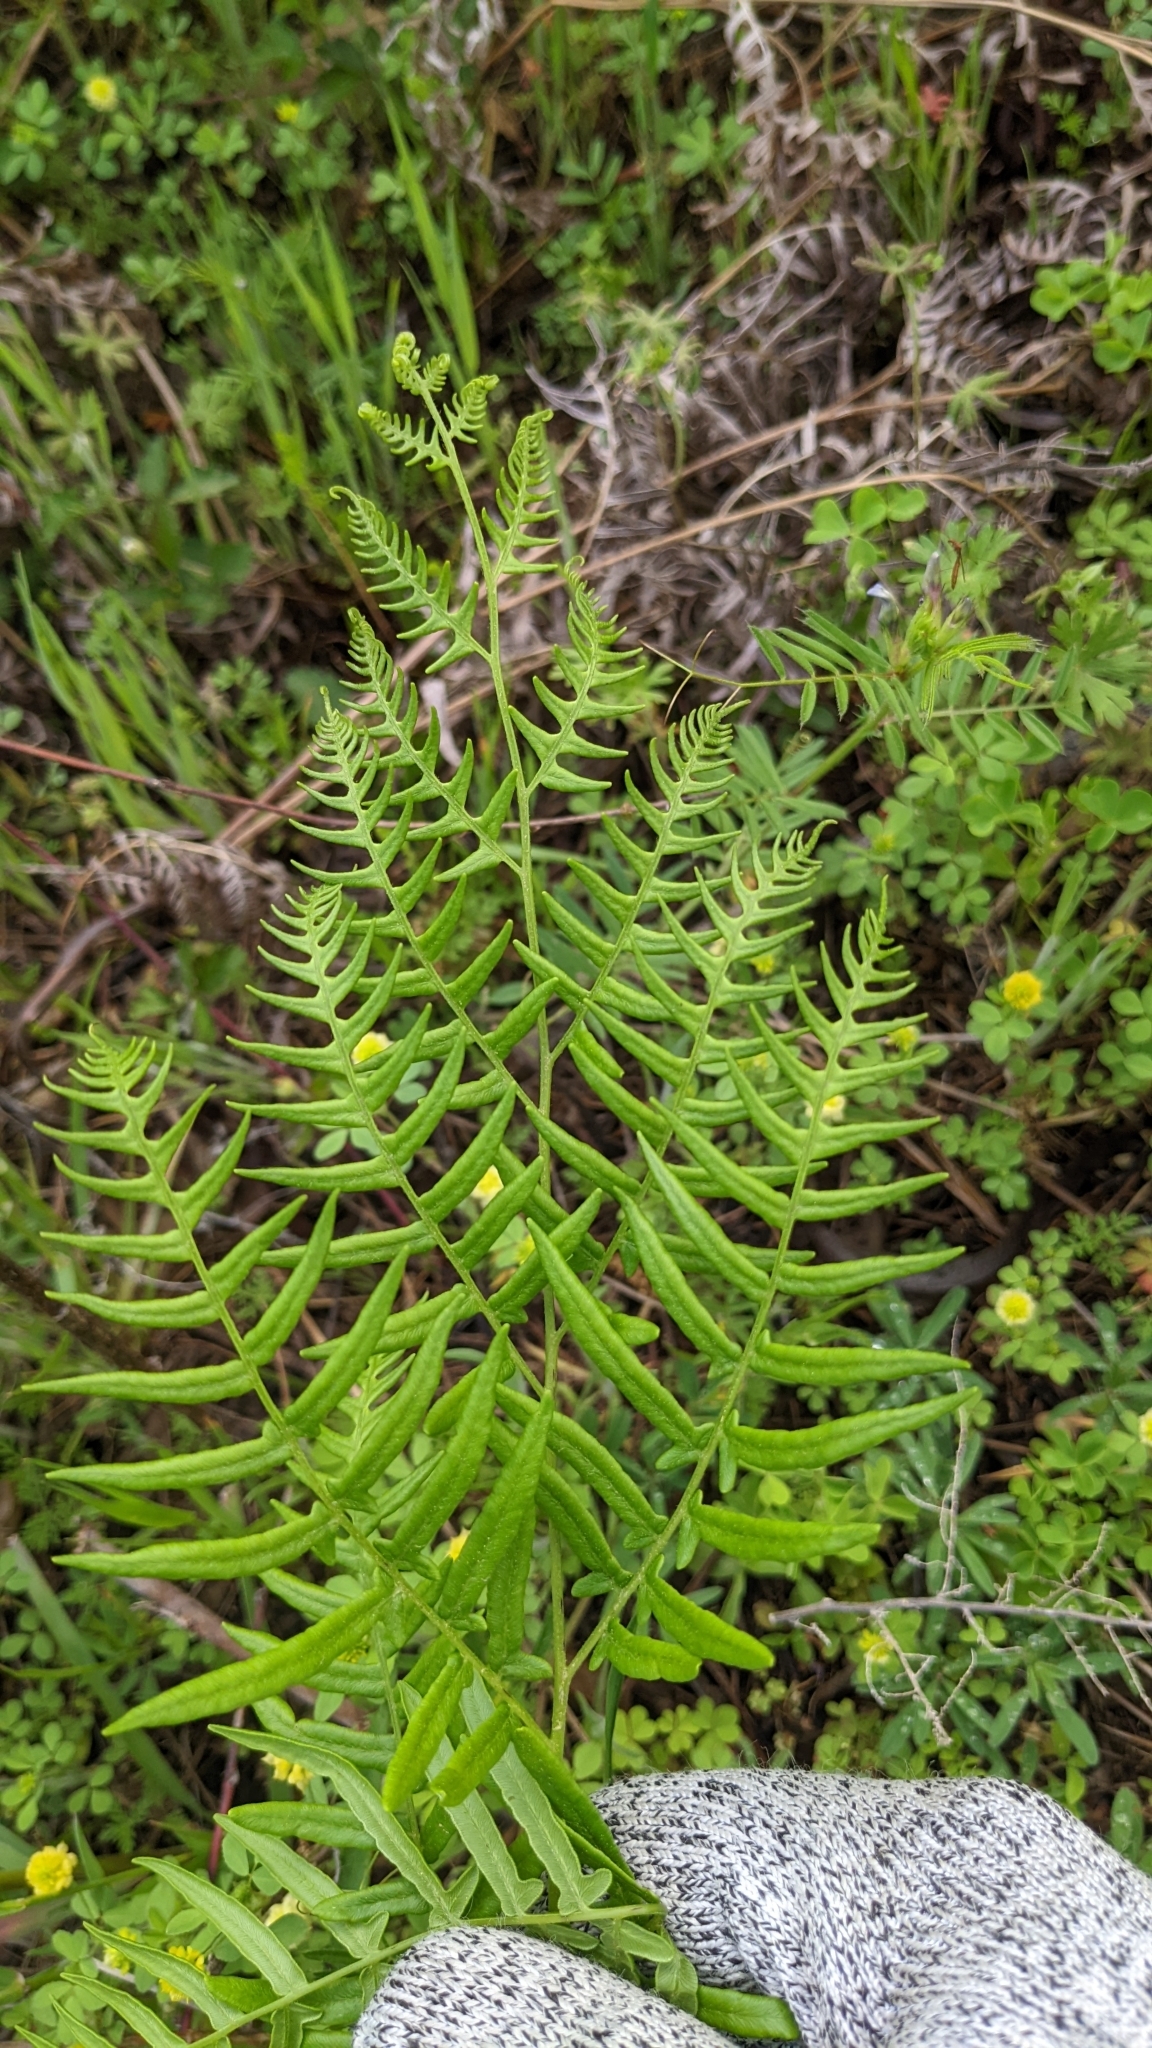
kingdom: Plantae
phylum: Tracheophyta
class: Polypodiopsida
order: Polypodiales
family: Dennstaedtiaceae
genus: Pteridium
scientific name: Pteridium
